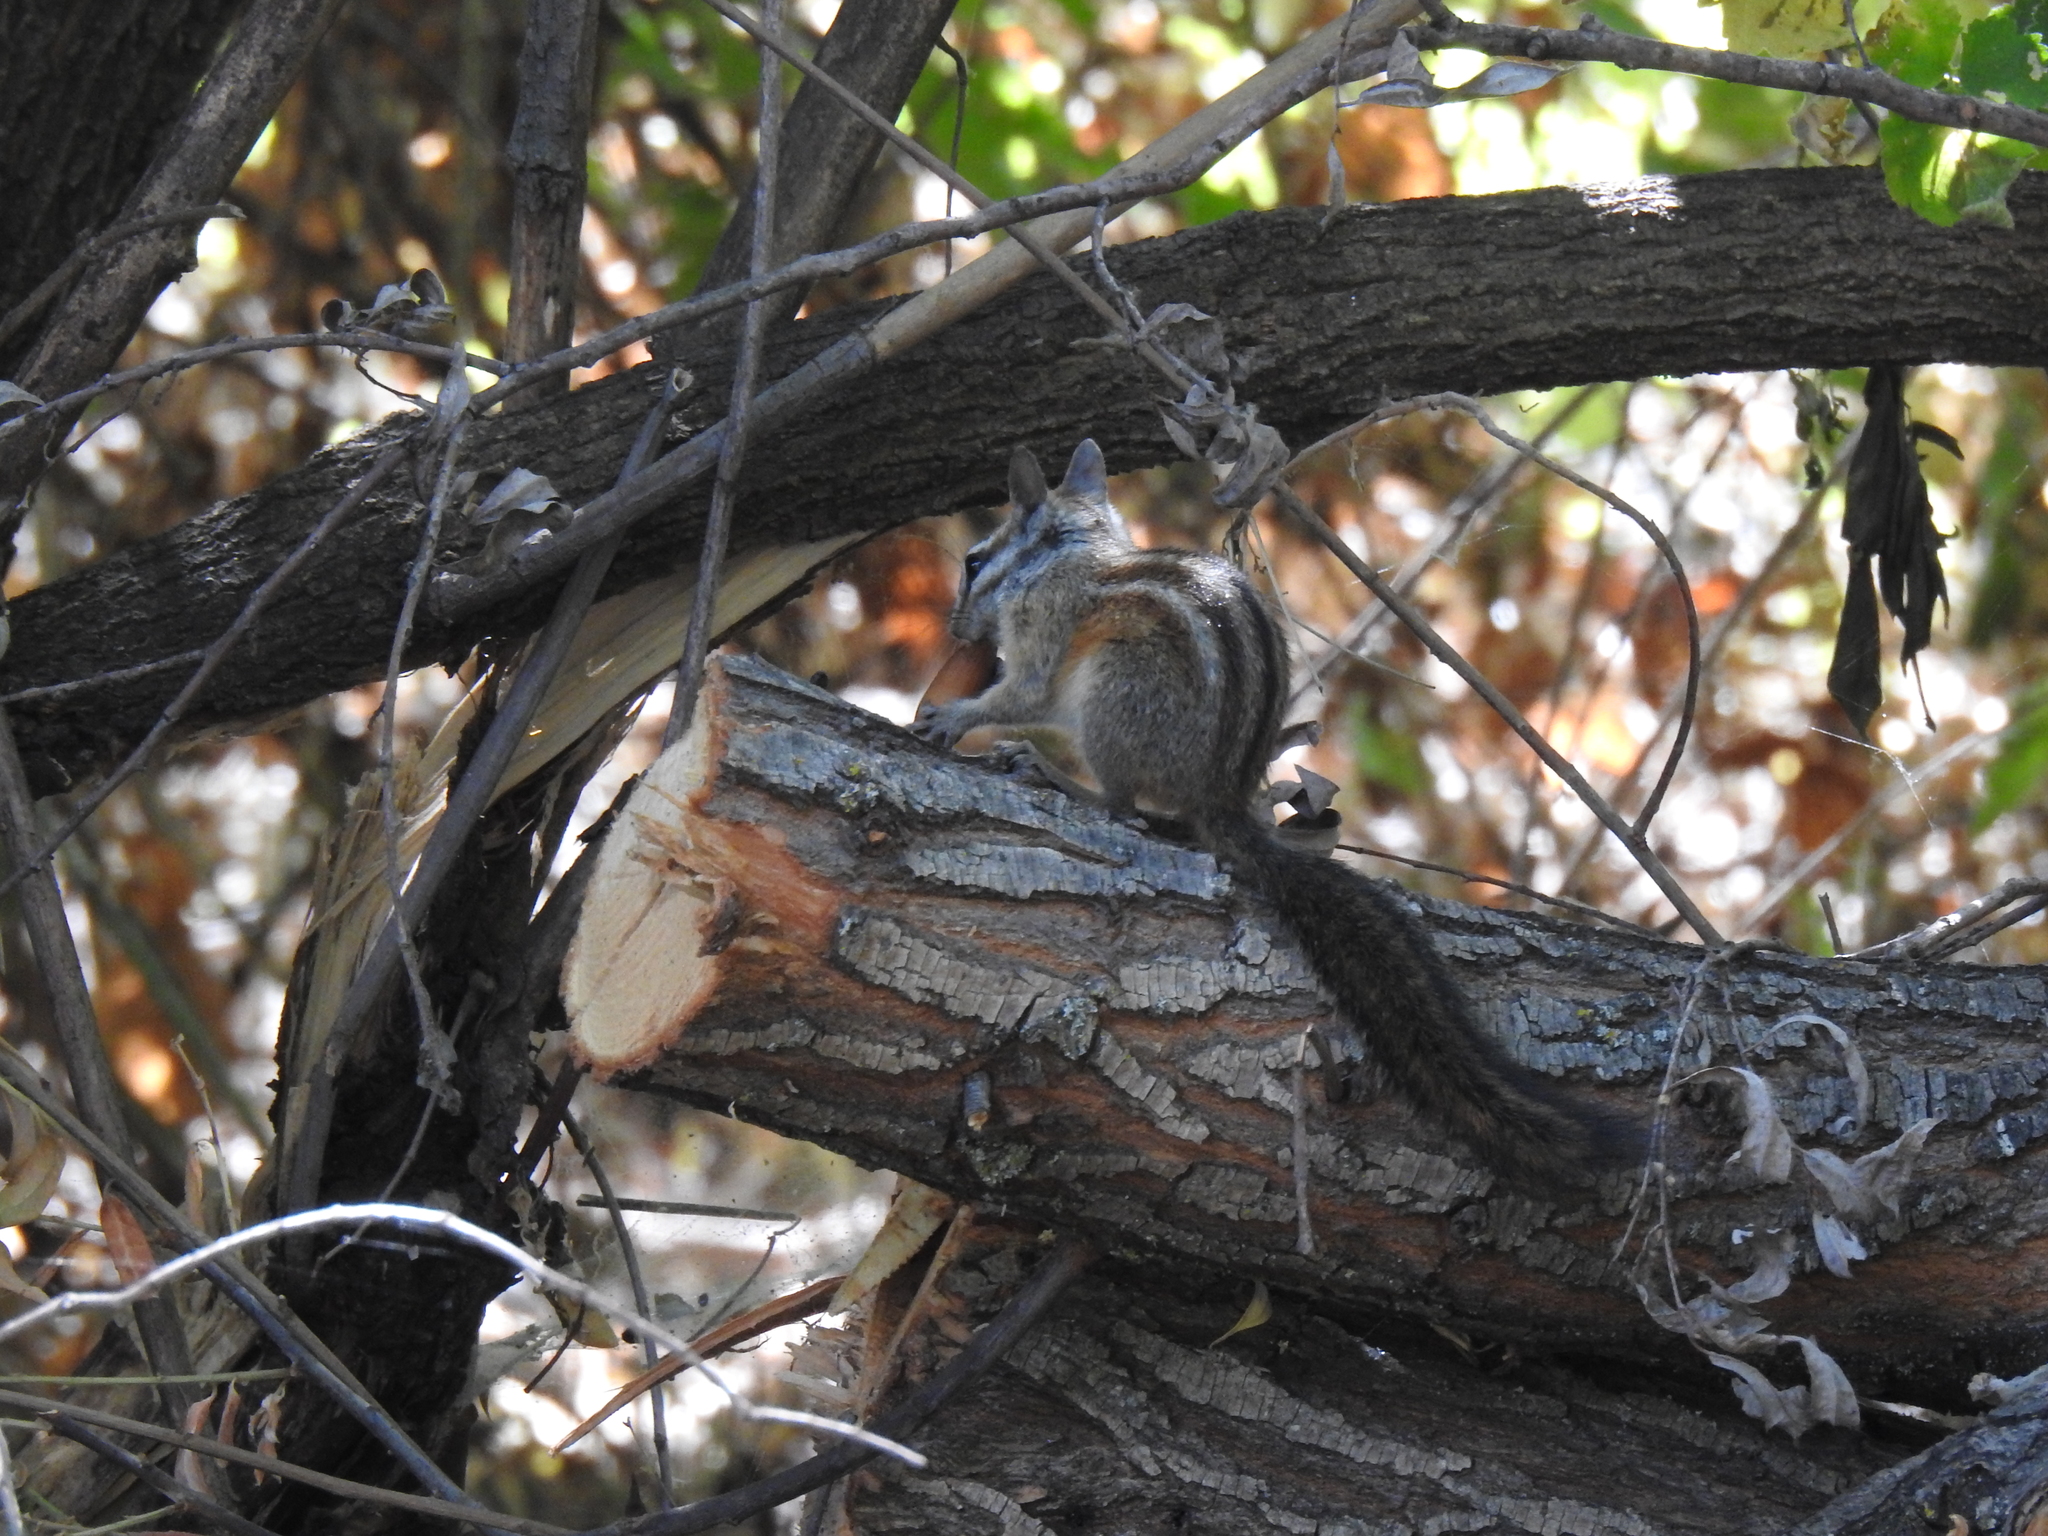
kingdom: Animalia
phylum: Chordata
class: Mammalia
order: Rodentia
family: Sciuridae
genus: Tamias
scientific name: Tamias merriami
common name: Merriam's chipmunk
